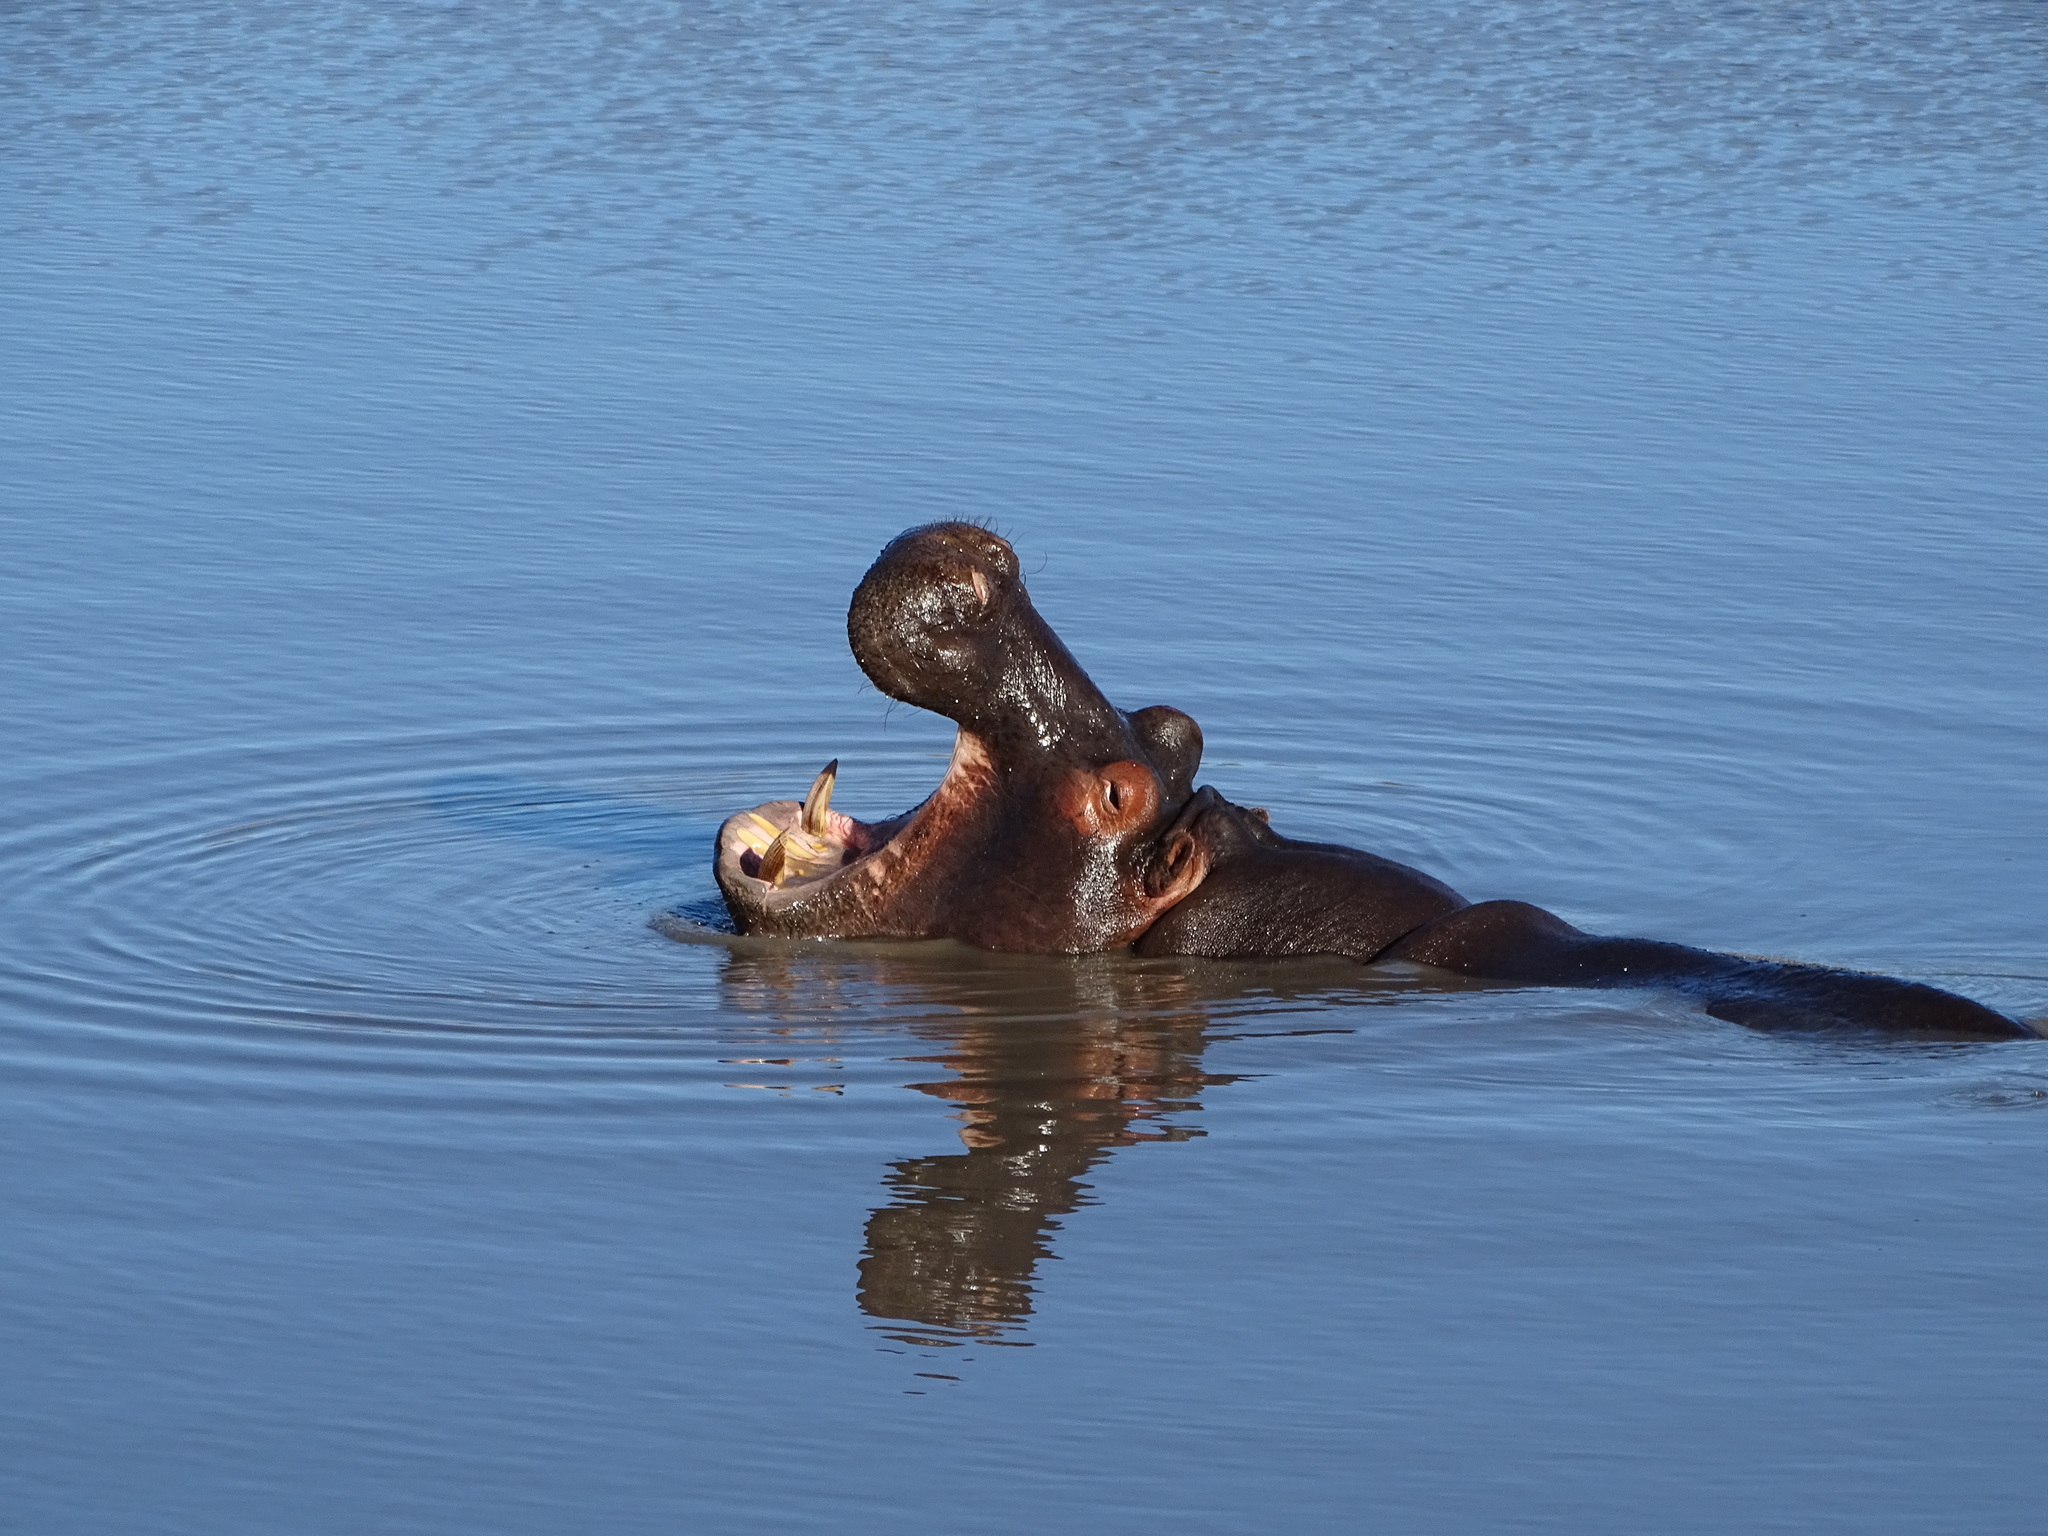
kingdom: Animalia
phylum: Chordata
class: Mammalia
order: Artiodactyla
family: Hippopotamidae
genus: Hippopotamus
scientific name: Hippopotamus amphibius
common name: Common hippopotamus
